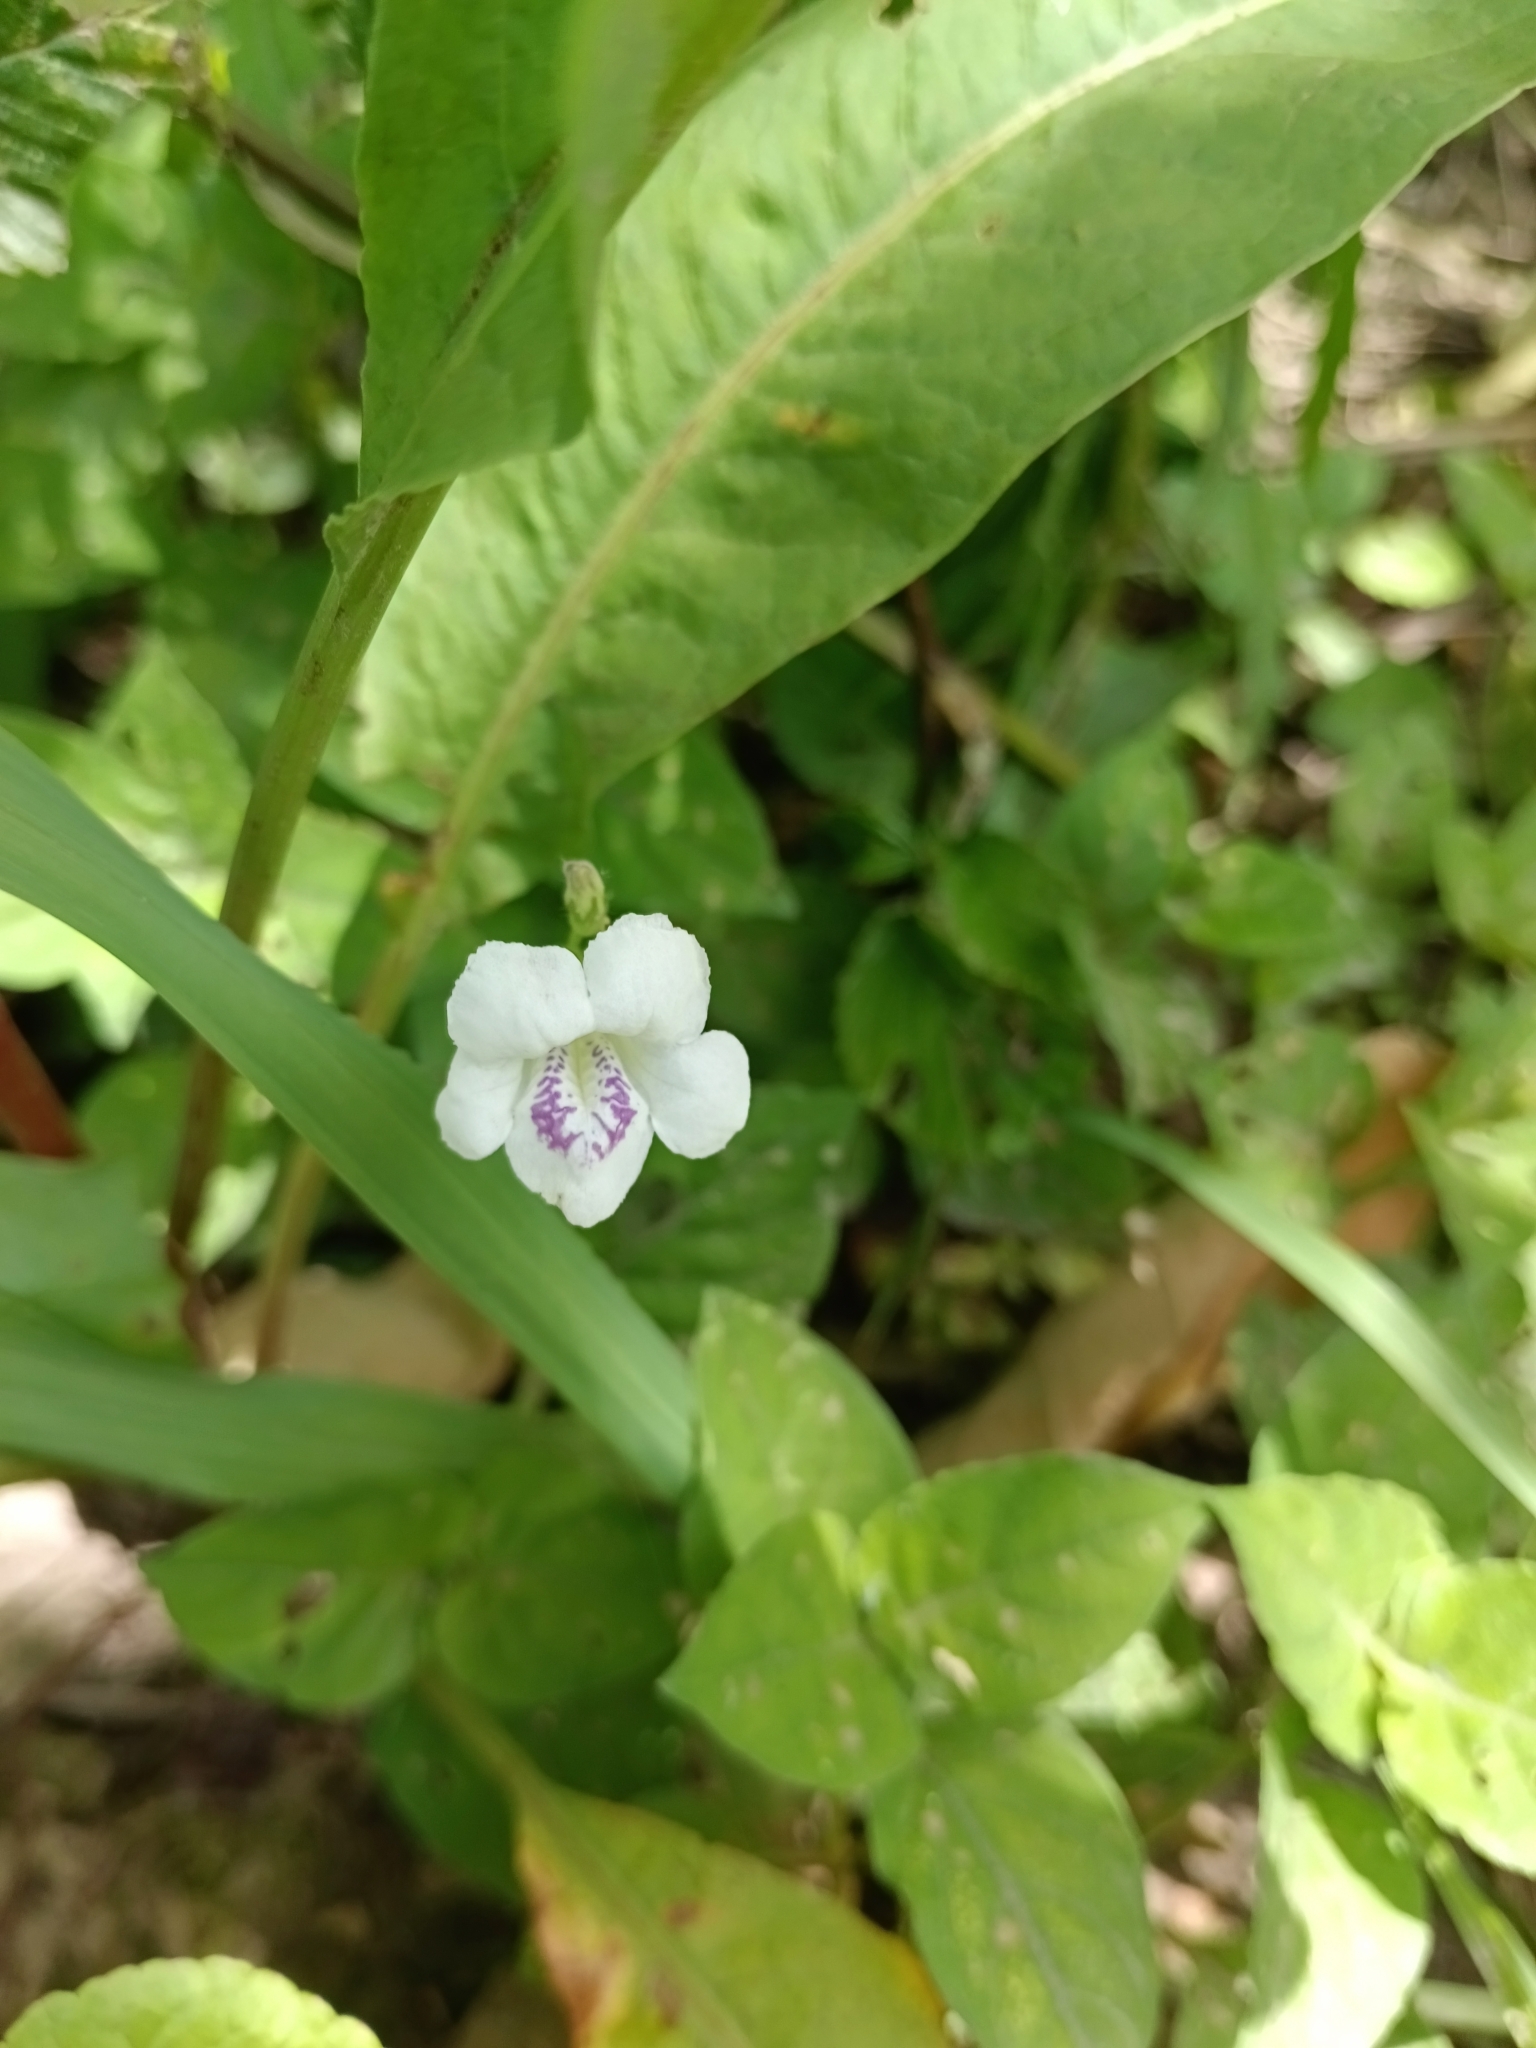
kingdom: Plantae
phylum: Tracheophyta
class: Magnoliopsida
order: Lamiales
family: Acanthaceae
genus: Asystasia
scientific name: Asystasia intrusa
